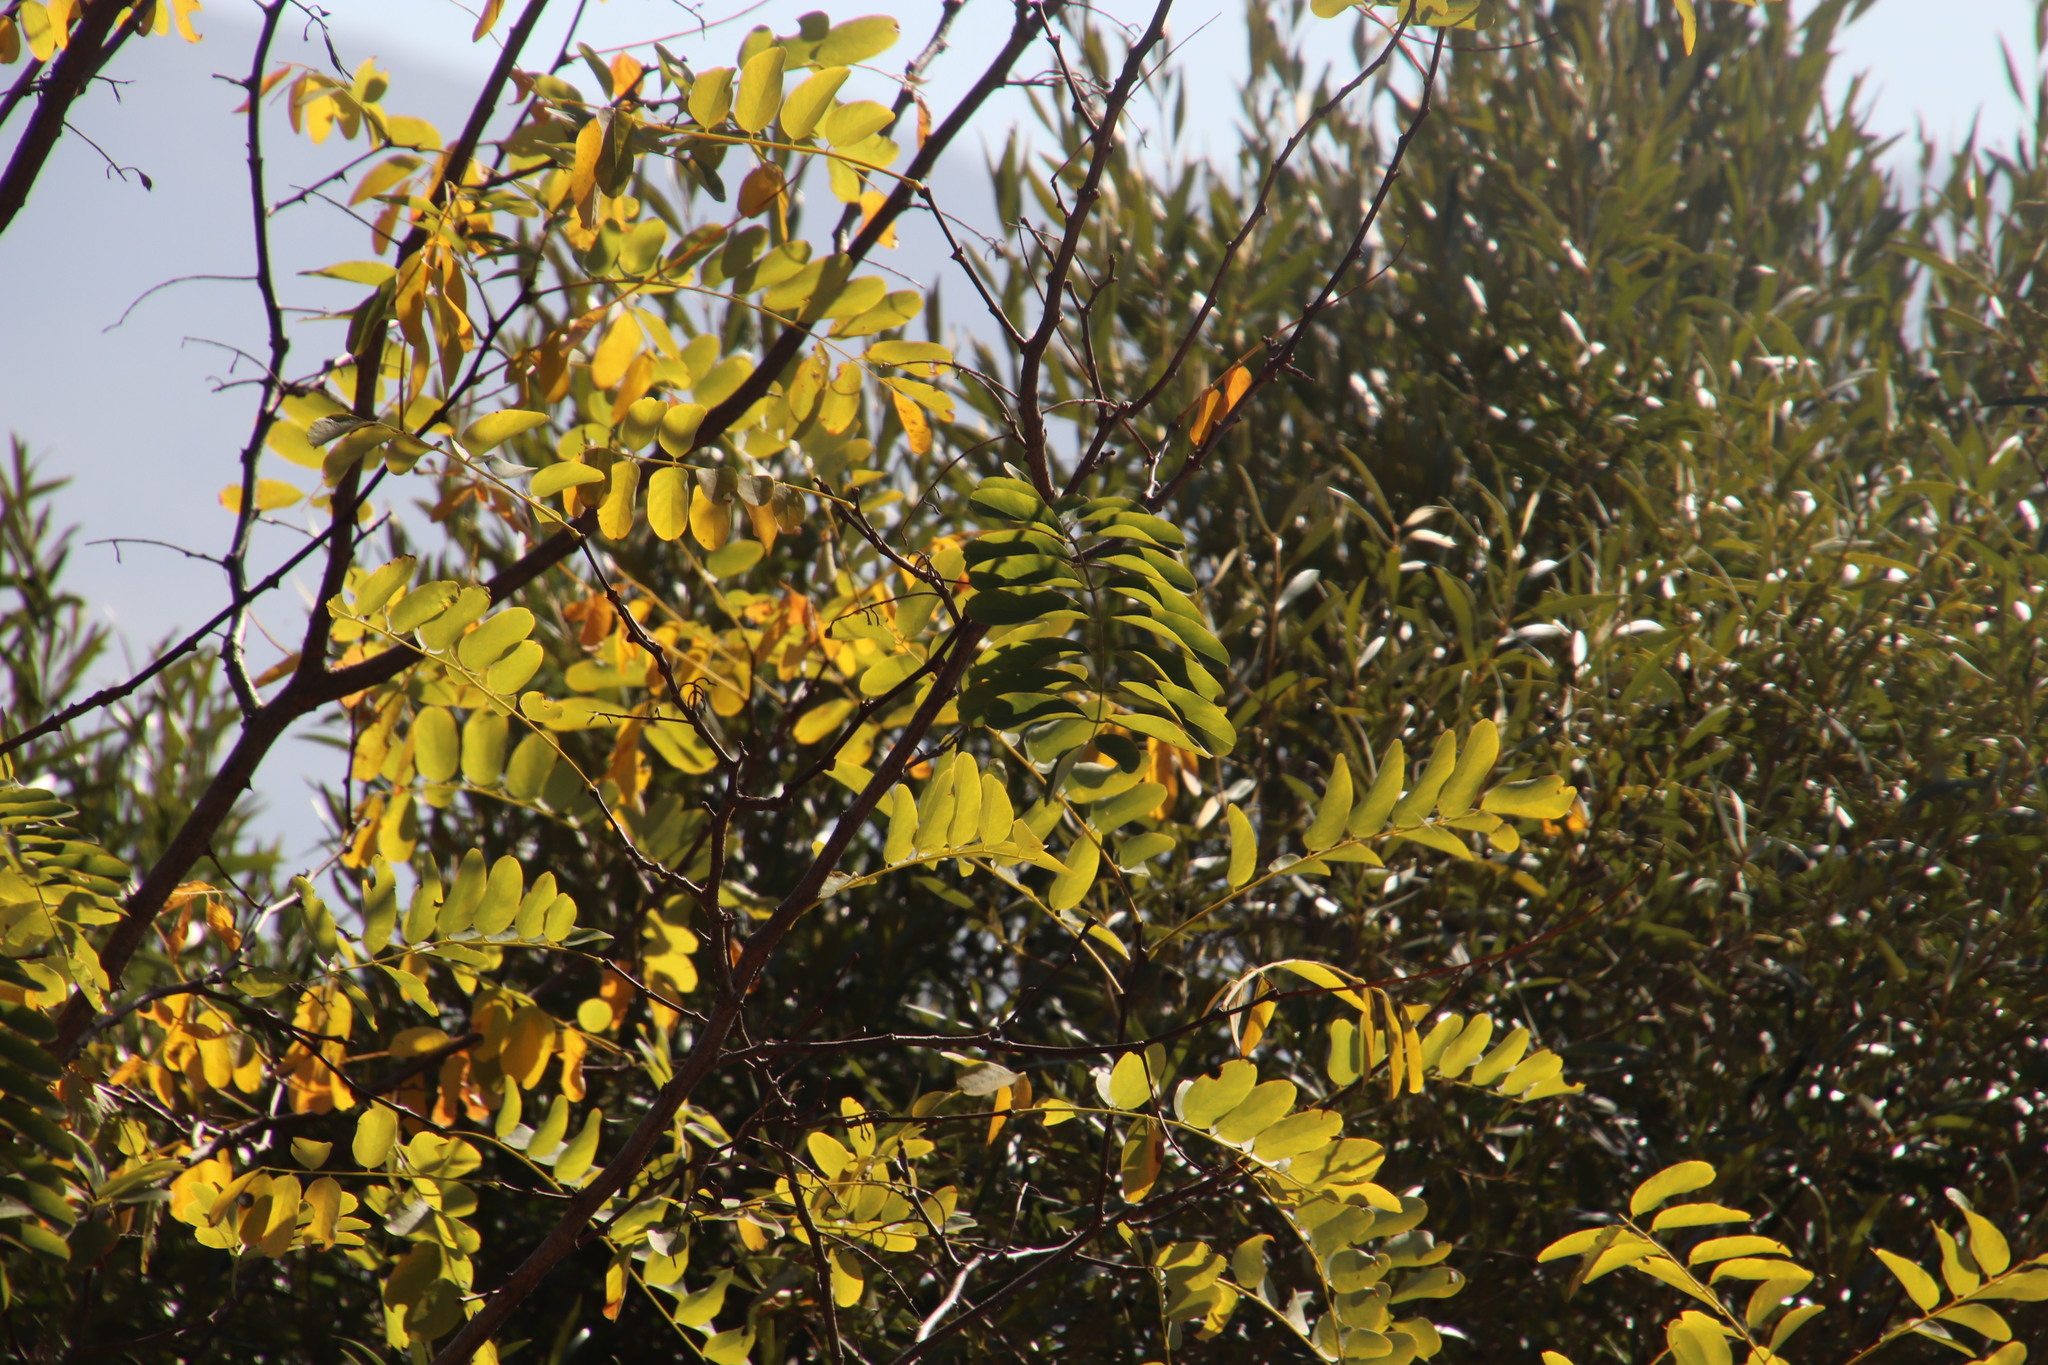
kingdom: Plantae
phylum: Tracheophyta
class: Magnoliopsida
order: Fabales
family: Fabaceae
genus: Robinia
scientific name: Robinia pseudoacacia
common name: Black locust
